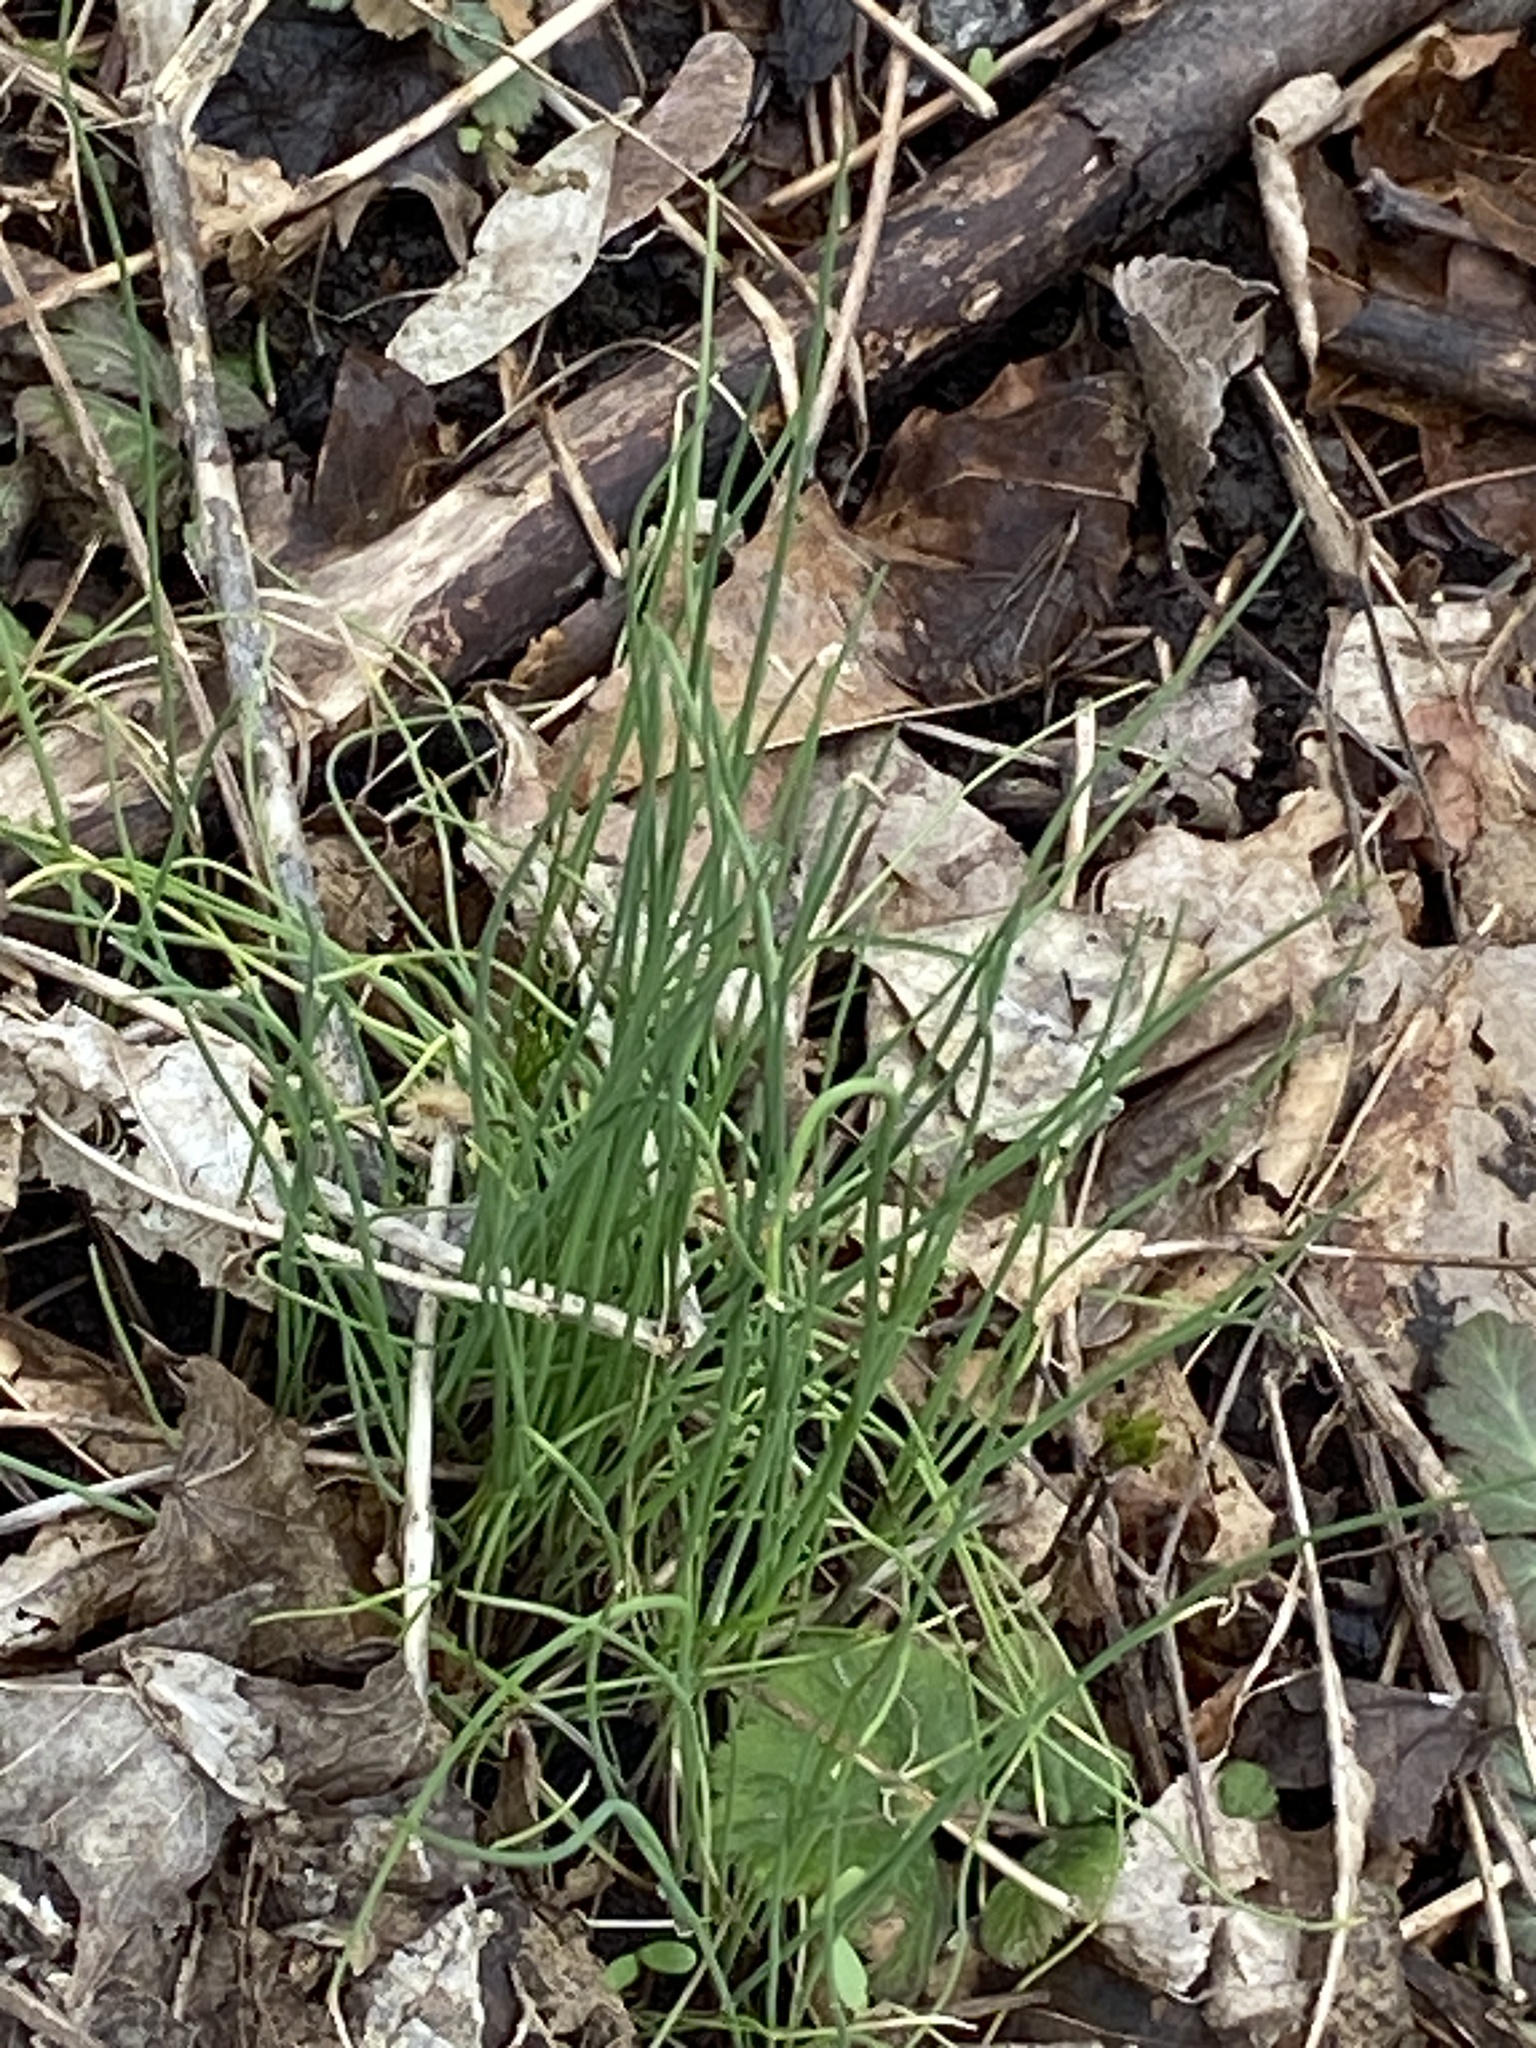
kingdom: Plantae
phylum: Tracheophyta
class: Liliopsida
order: Asparagales
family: Amaryllidaceae
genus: Allium
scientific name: Allium vineale
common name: Crow garlic
